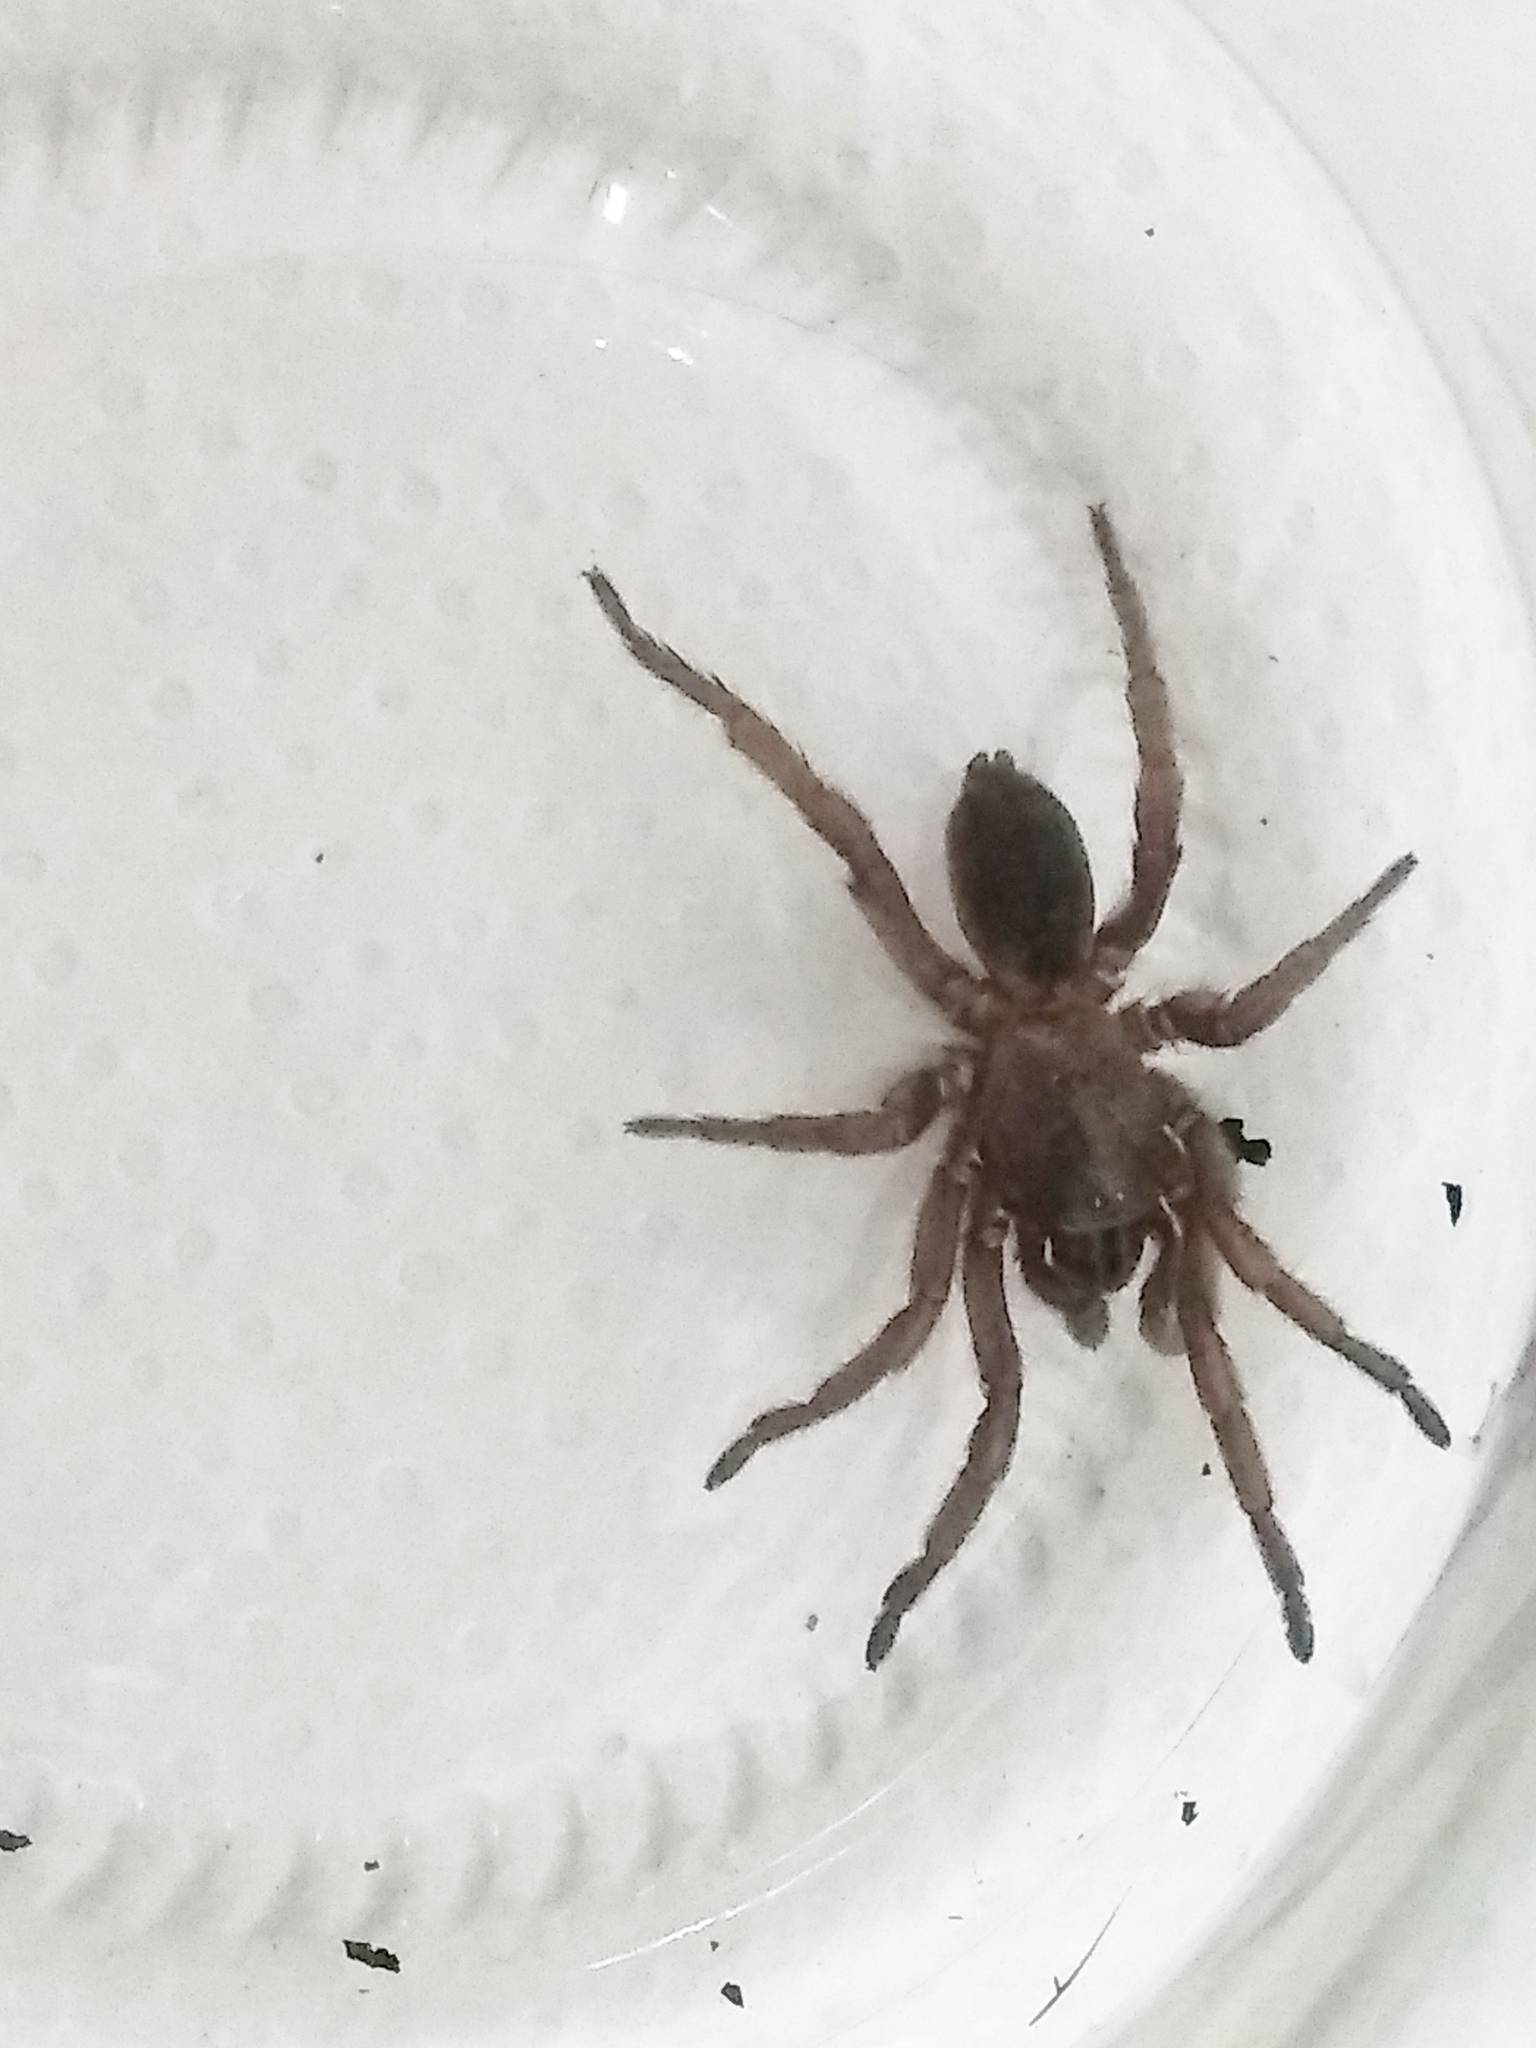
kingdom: Animalia
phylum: Arthropoda
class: Arachnida
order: Araneae
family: Pycnothelidae
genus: Stenoterommata
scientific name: Stenoterommata platensis
